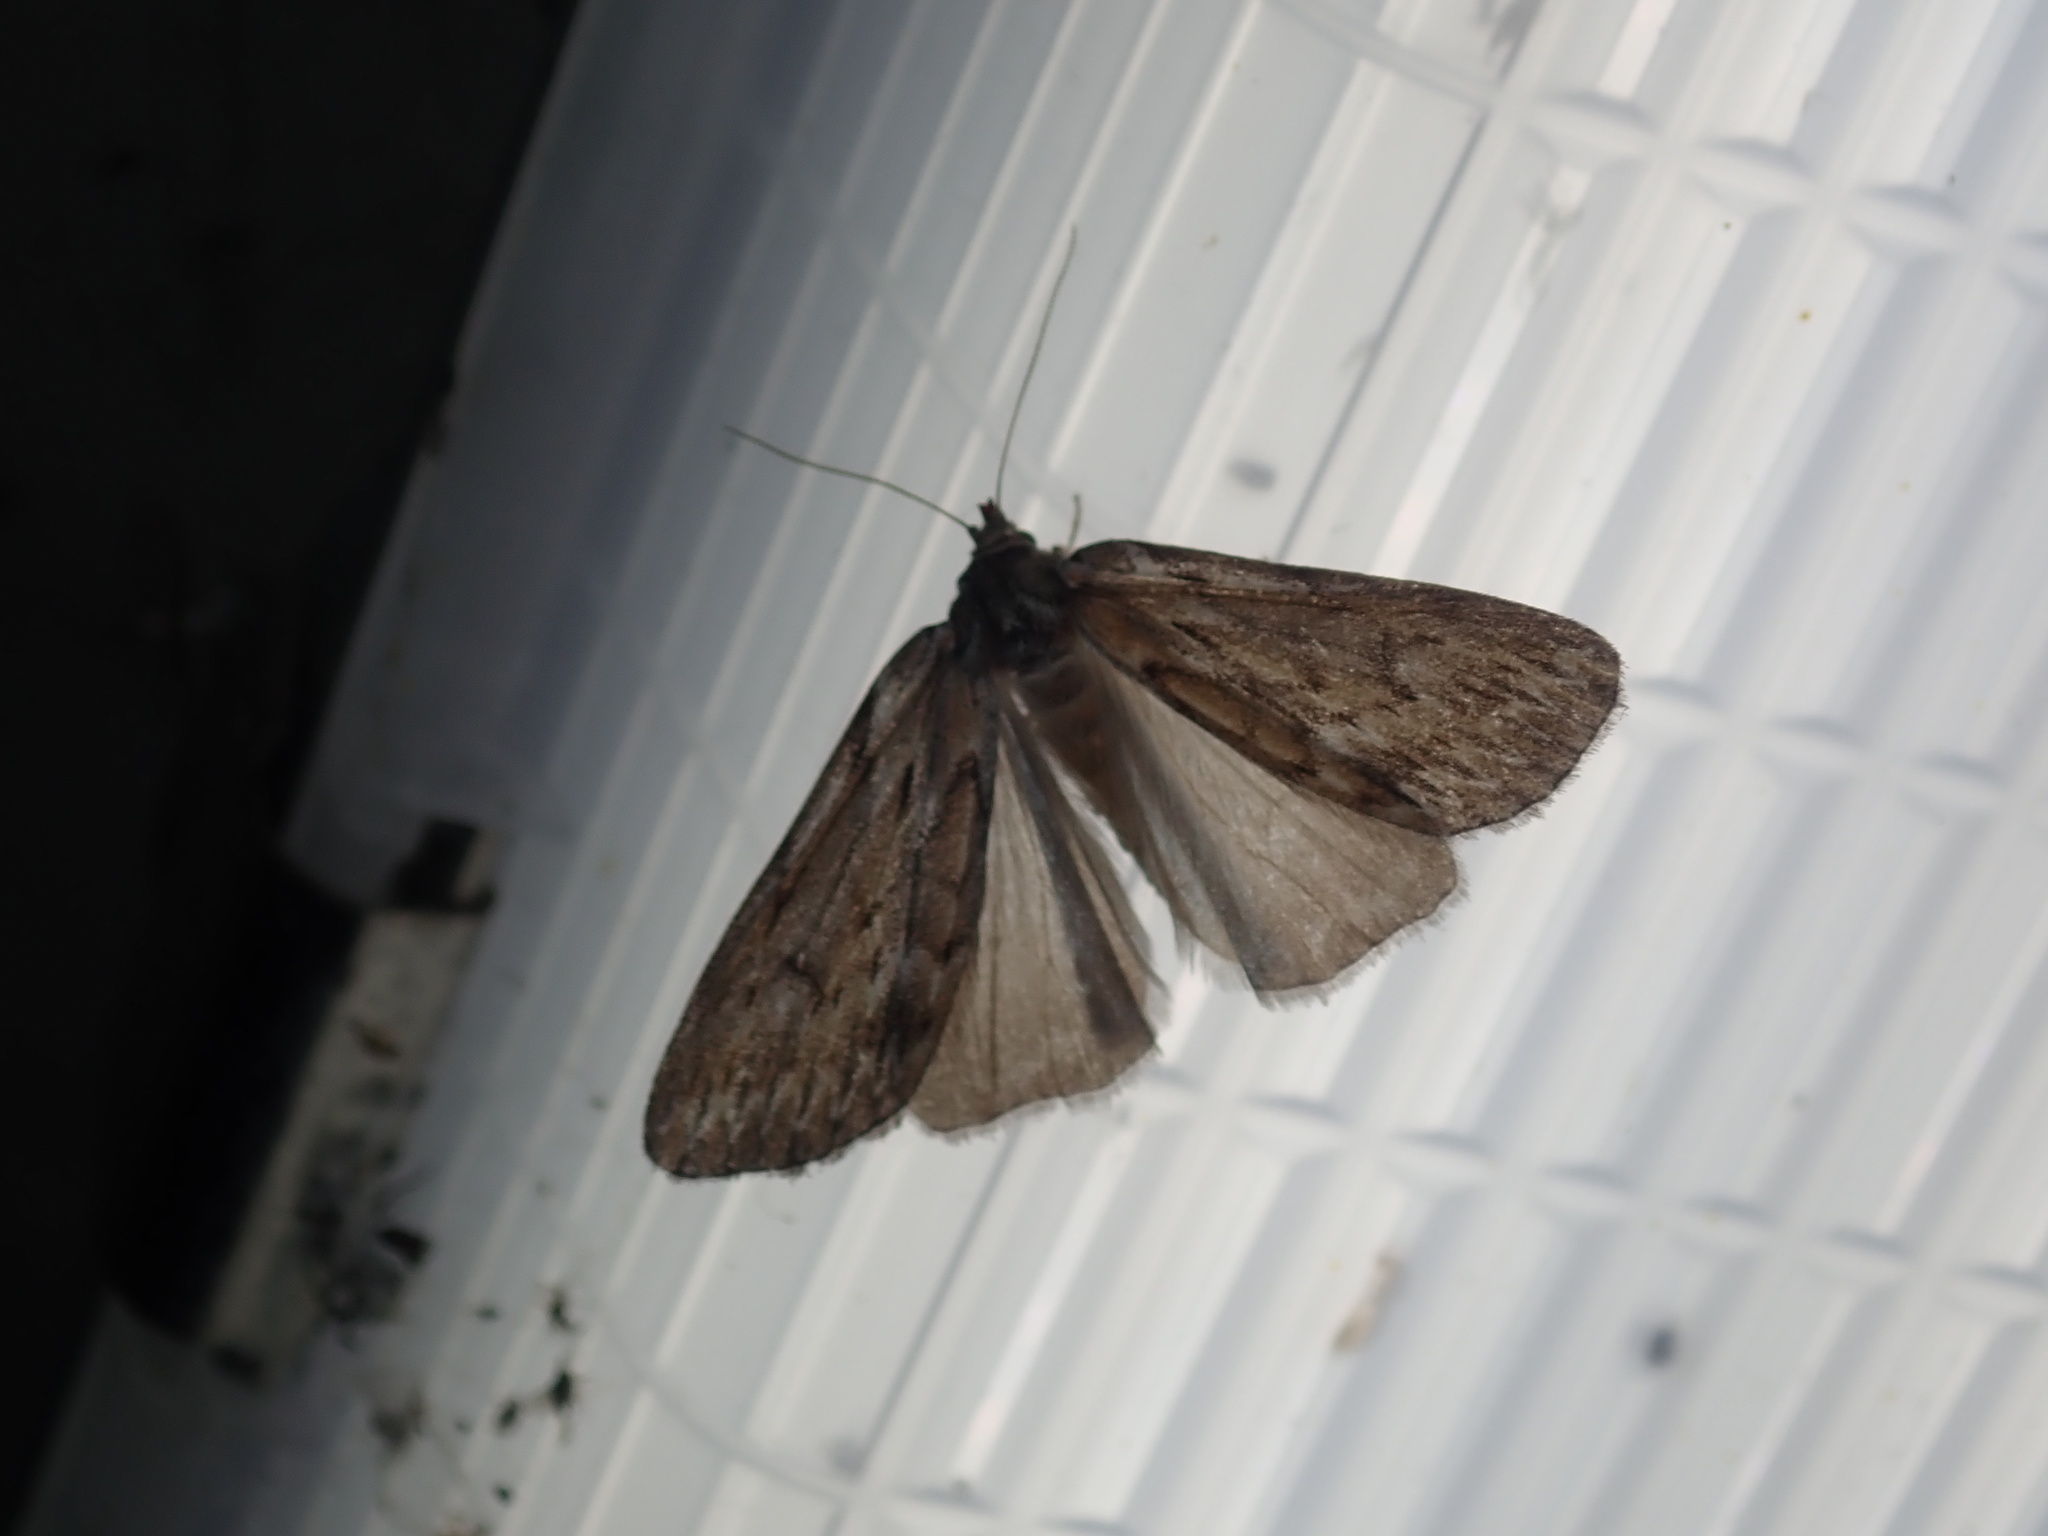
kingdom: Animalia
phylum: Arthropoda
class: Insecta
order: Lepidoptera
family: Geometridae
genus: Ciampa
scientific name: Ciampa arietaria
